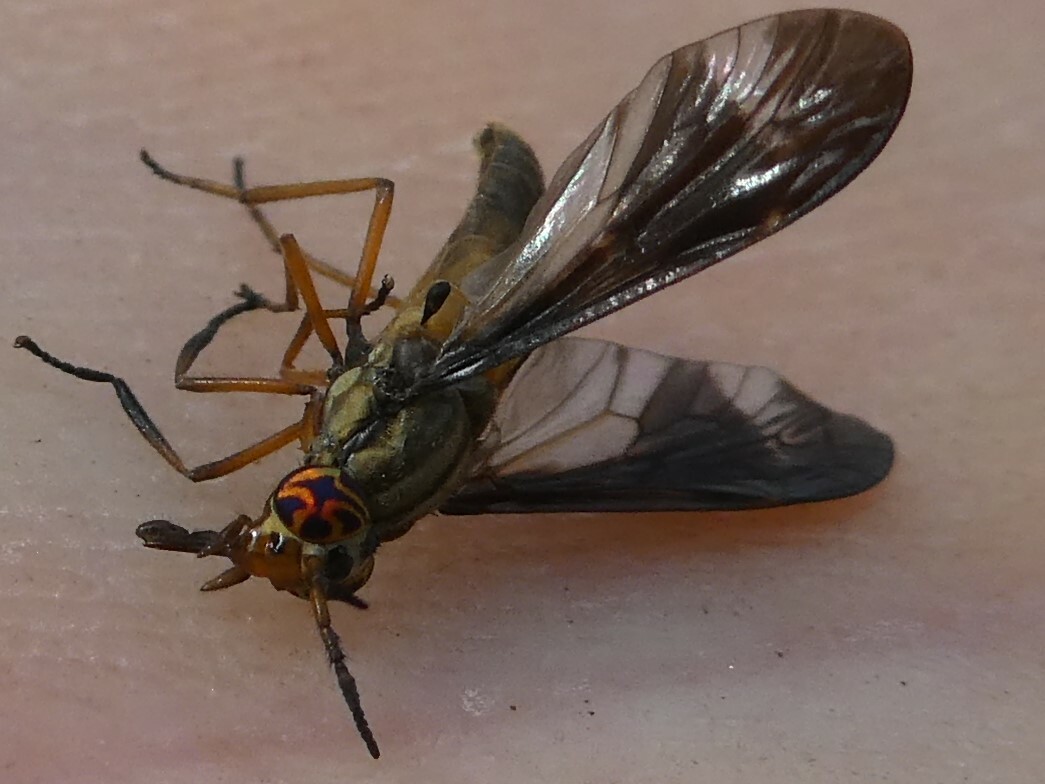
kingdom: Animalia
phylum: Arthropoda
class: Insecta
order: Diptera
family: Tabanidae
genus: Chrysops
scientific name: Chrysops macquarti
